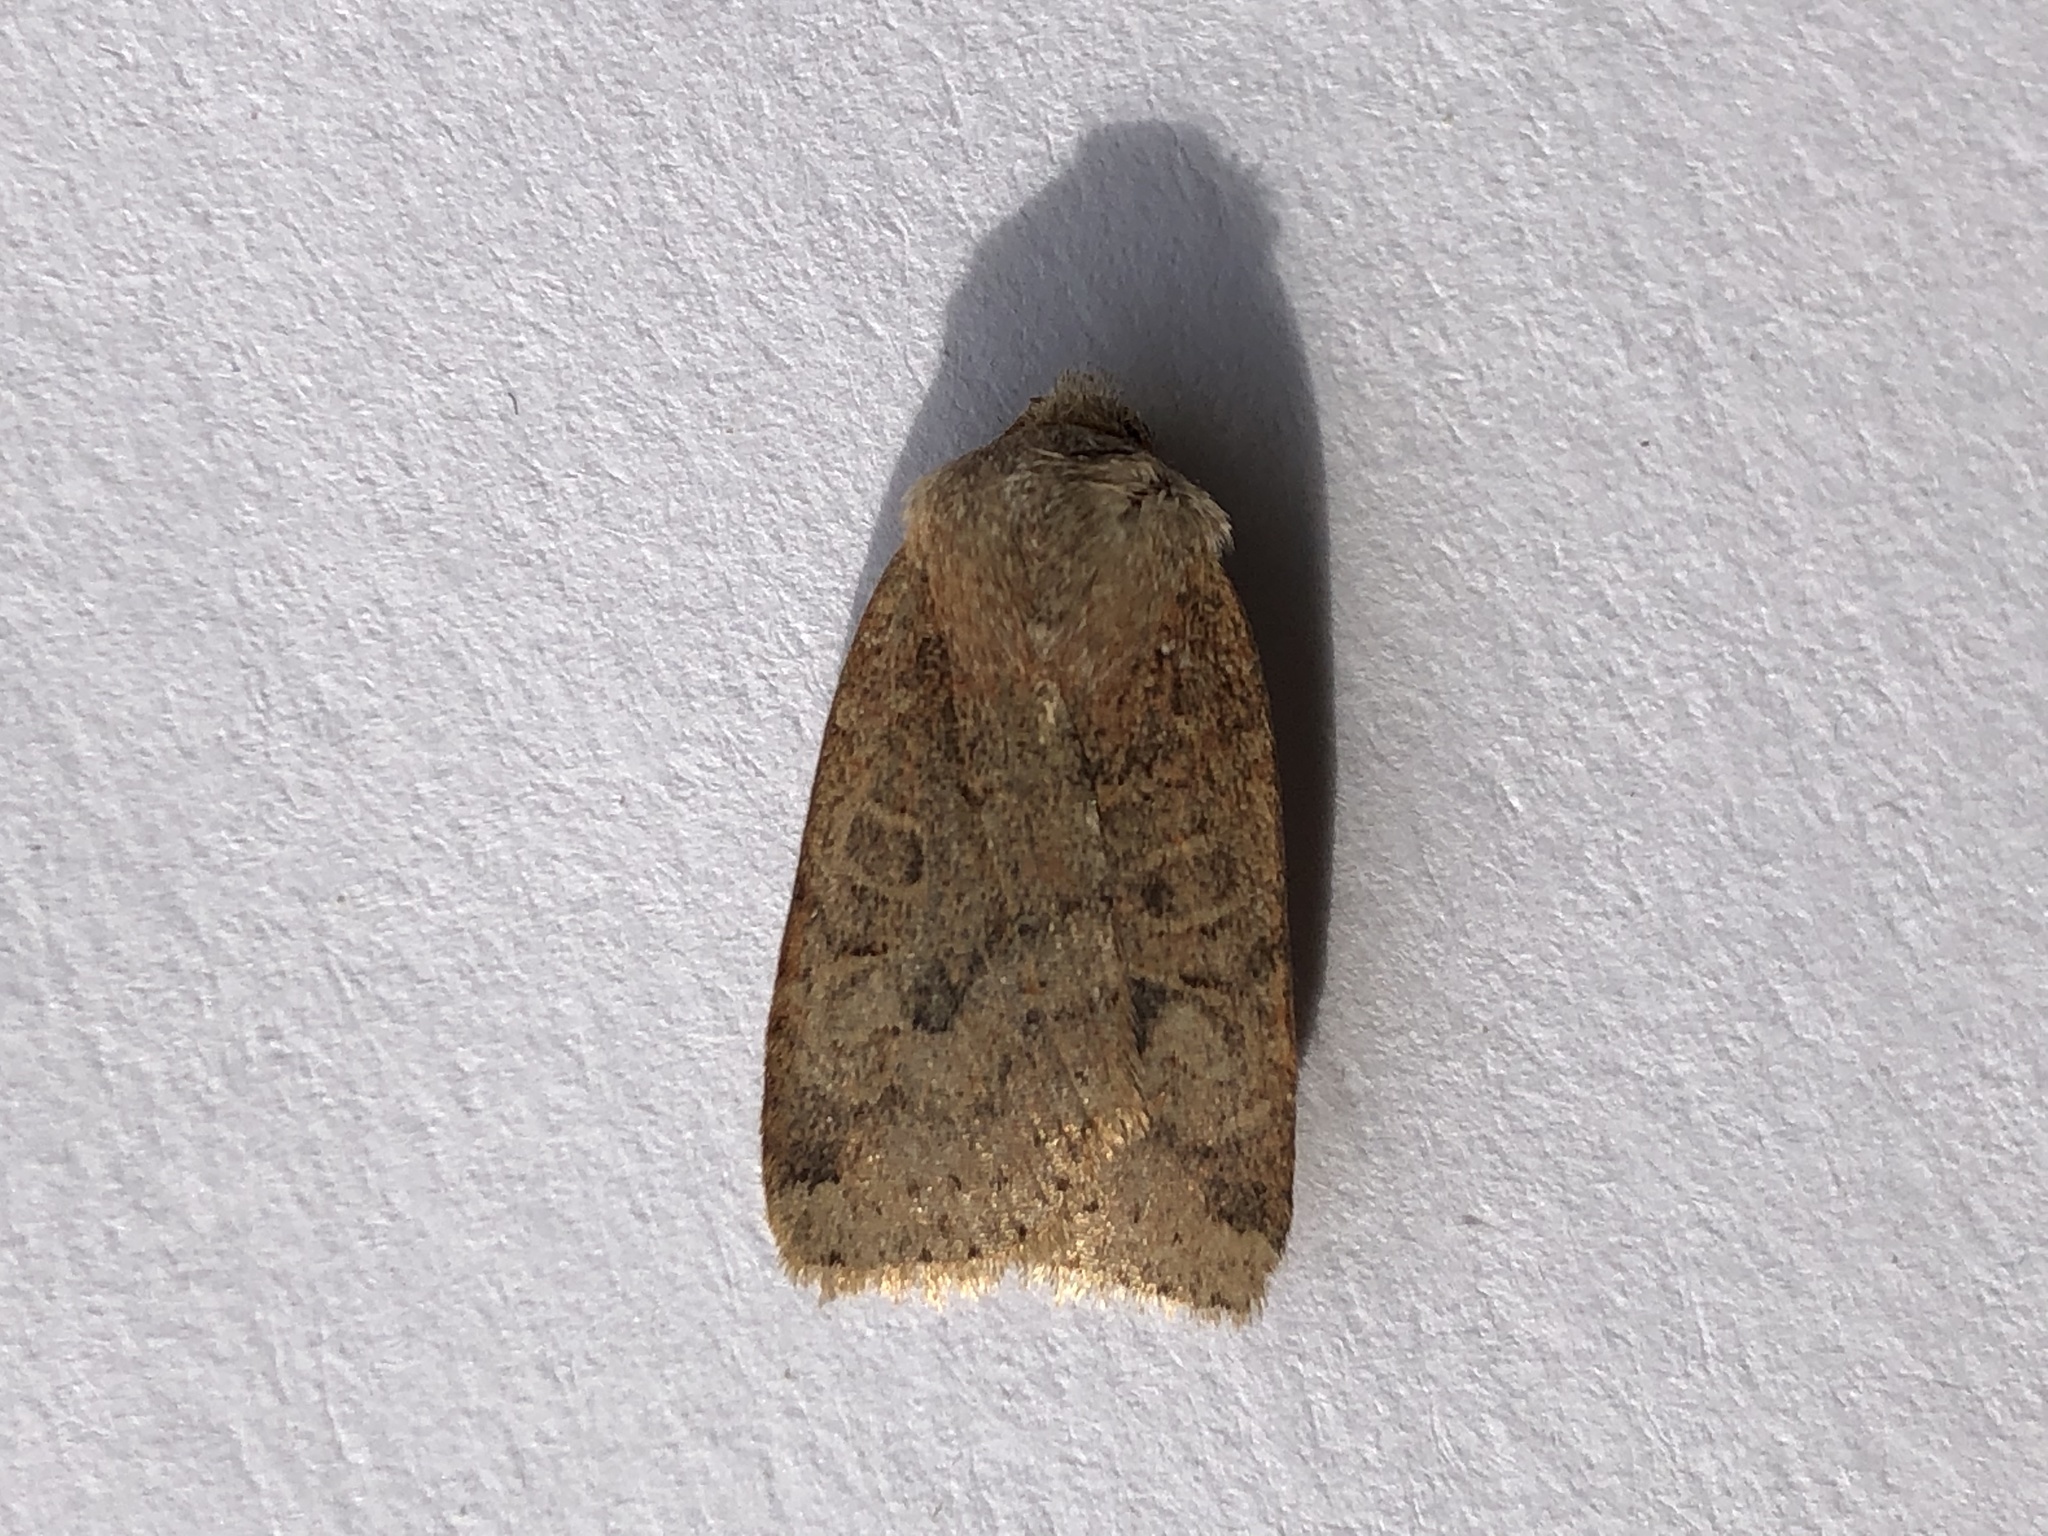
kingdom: Animalia
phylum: Arthropoda
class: Insecta
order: Lepidoptera
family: Noctuidae
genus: Conistra
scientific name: Conistra vaccinii
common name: Chestnut
